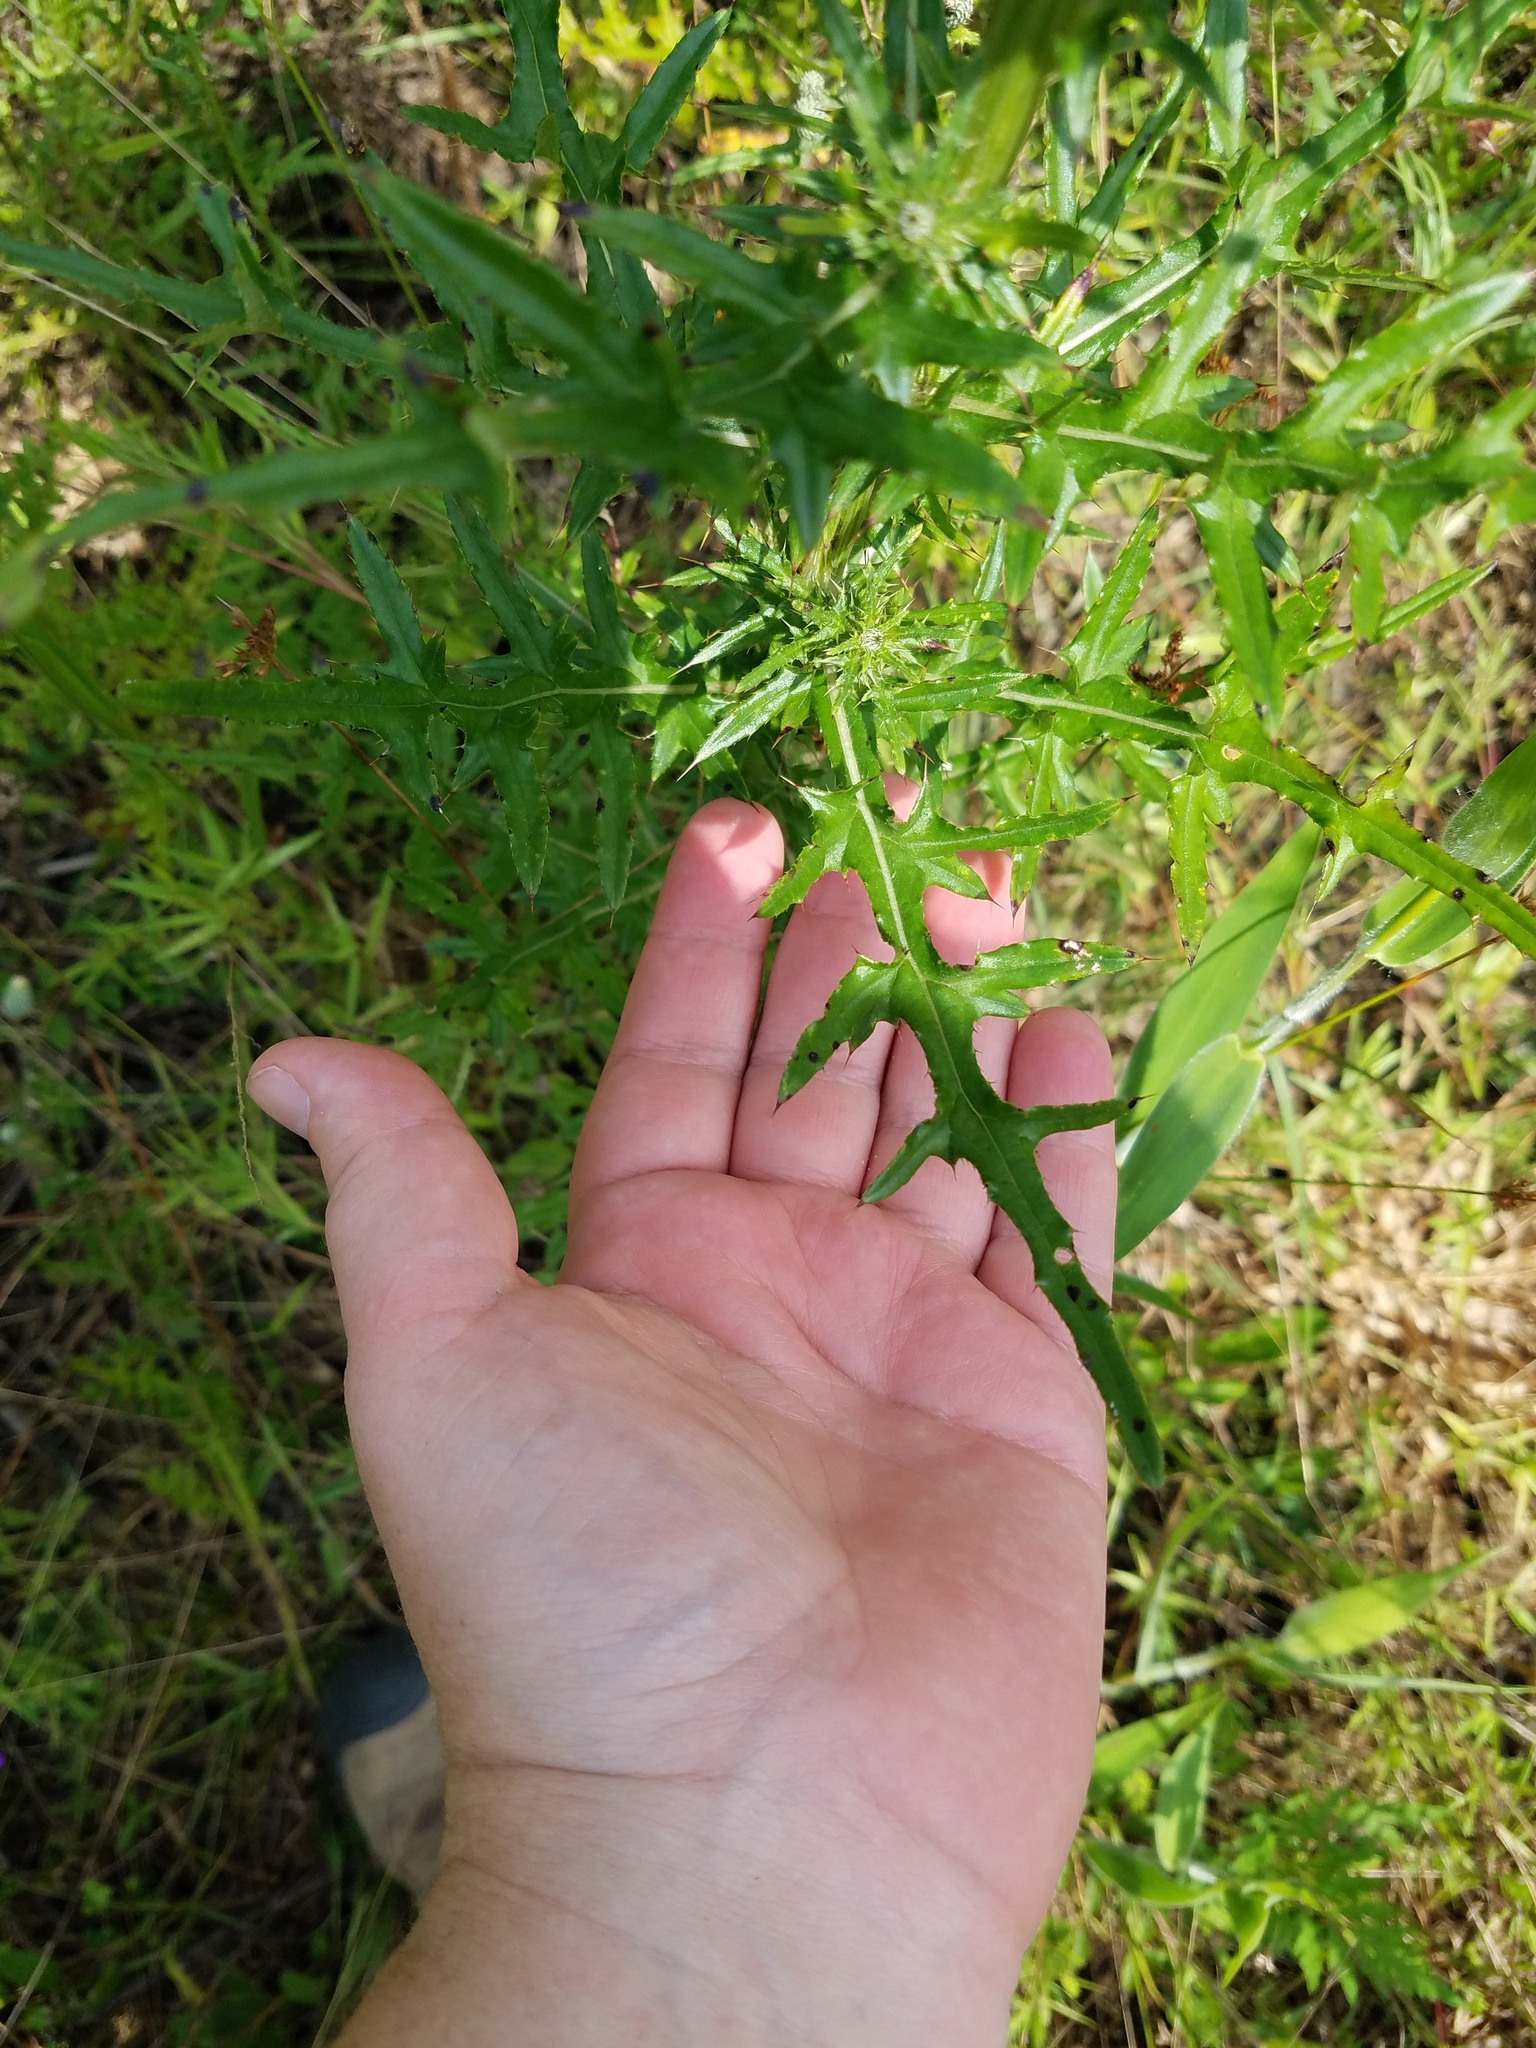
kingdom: Plantae
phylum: Tracheophyta
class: Magnoliopsida
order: Asterales
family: Asteraceae
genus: Cirsium
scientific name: Cirsium nuttalii
